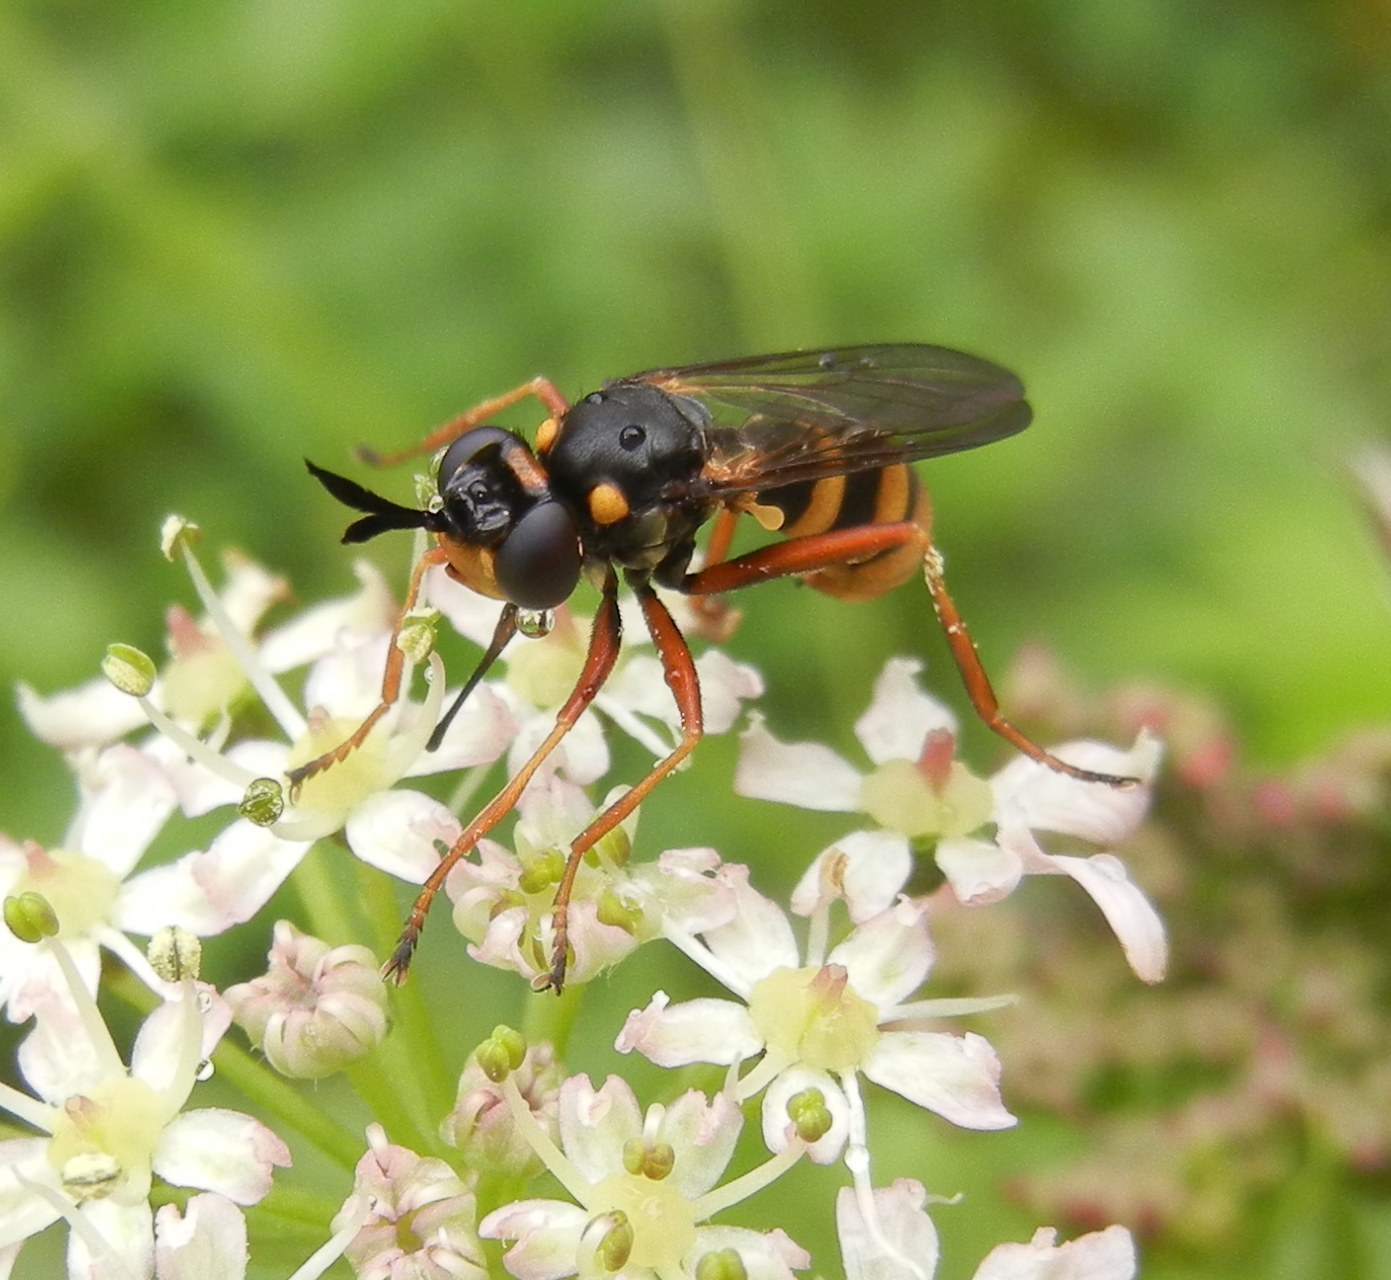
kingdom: Animalia
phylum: Arthropoda
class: Insecta
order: Diptera
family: Conopidae
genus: Conops
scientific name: Conops quadrifasciatus
